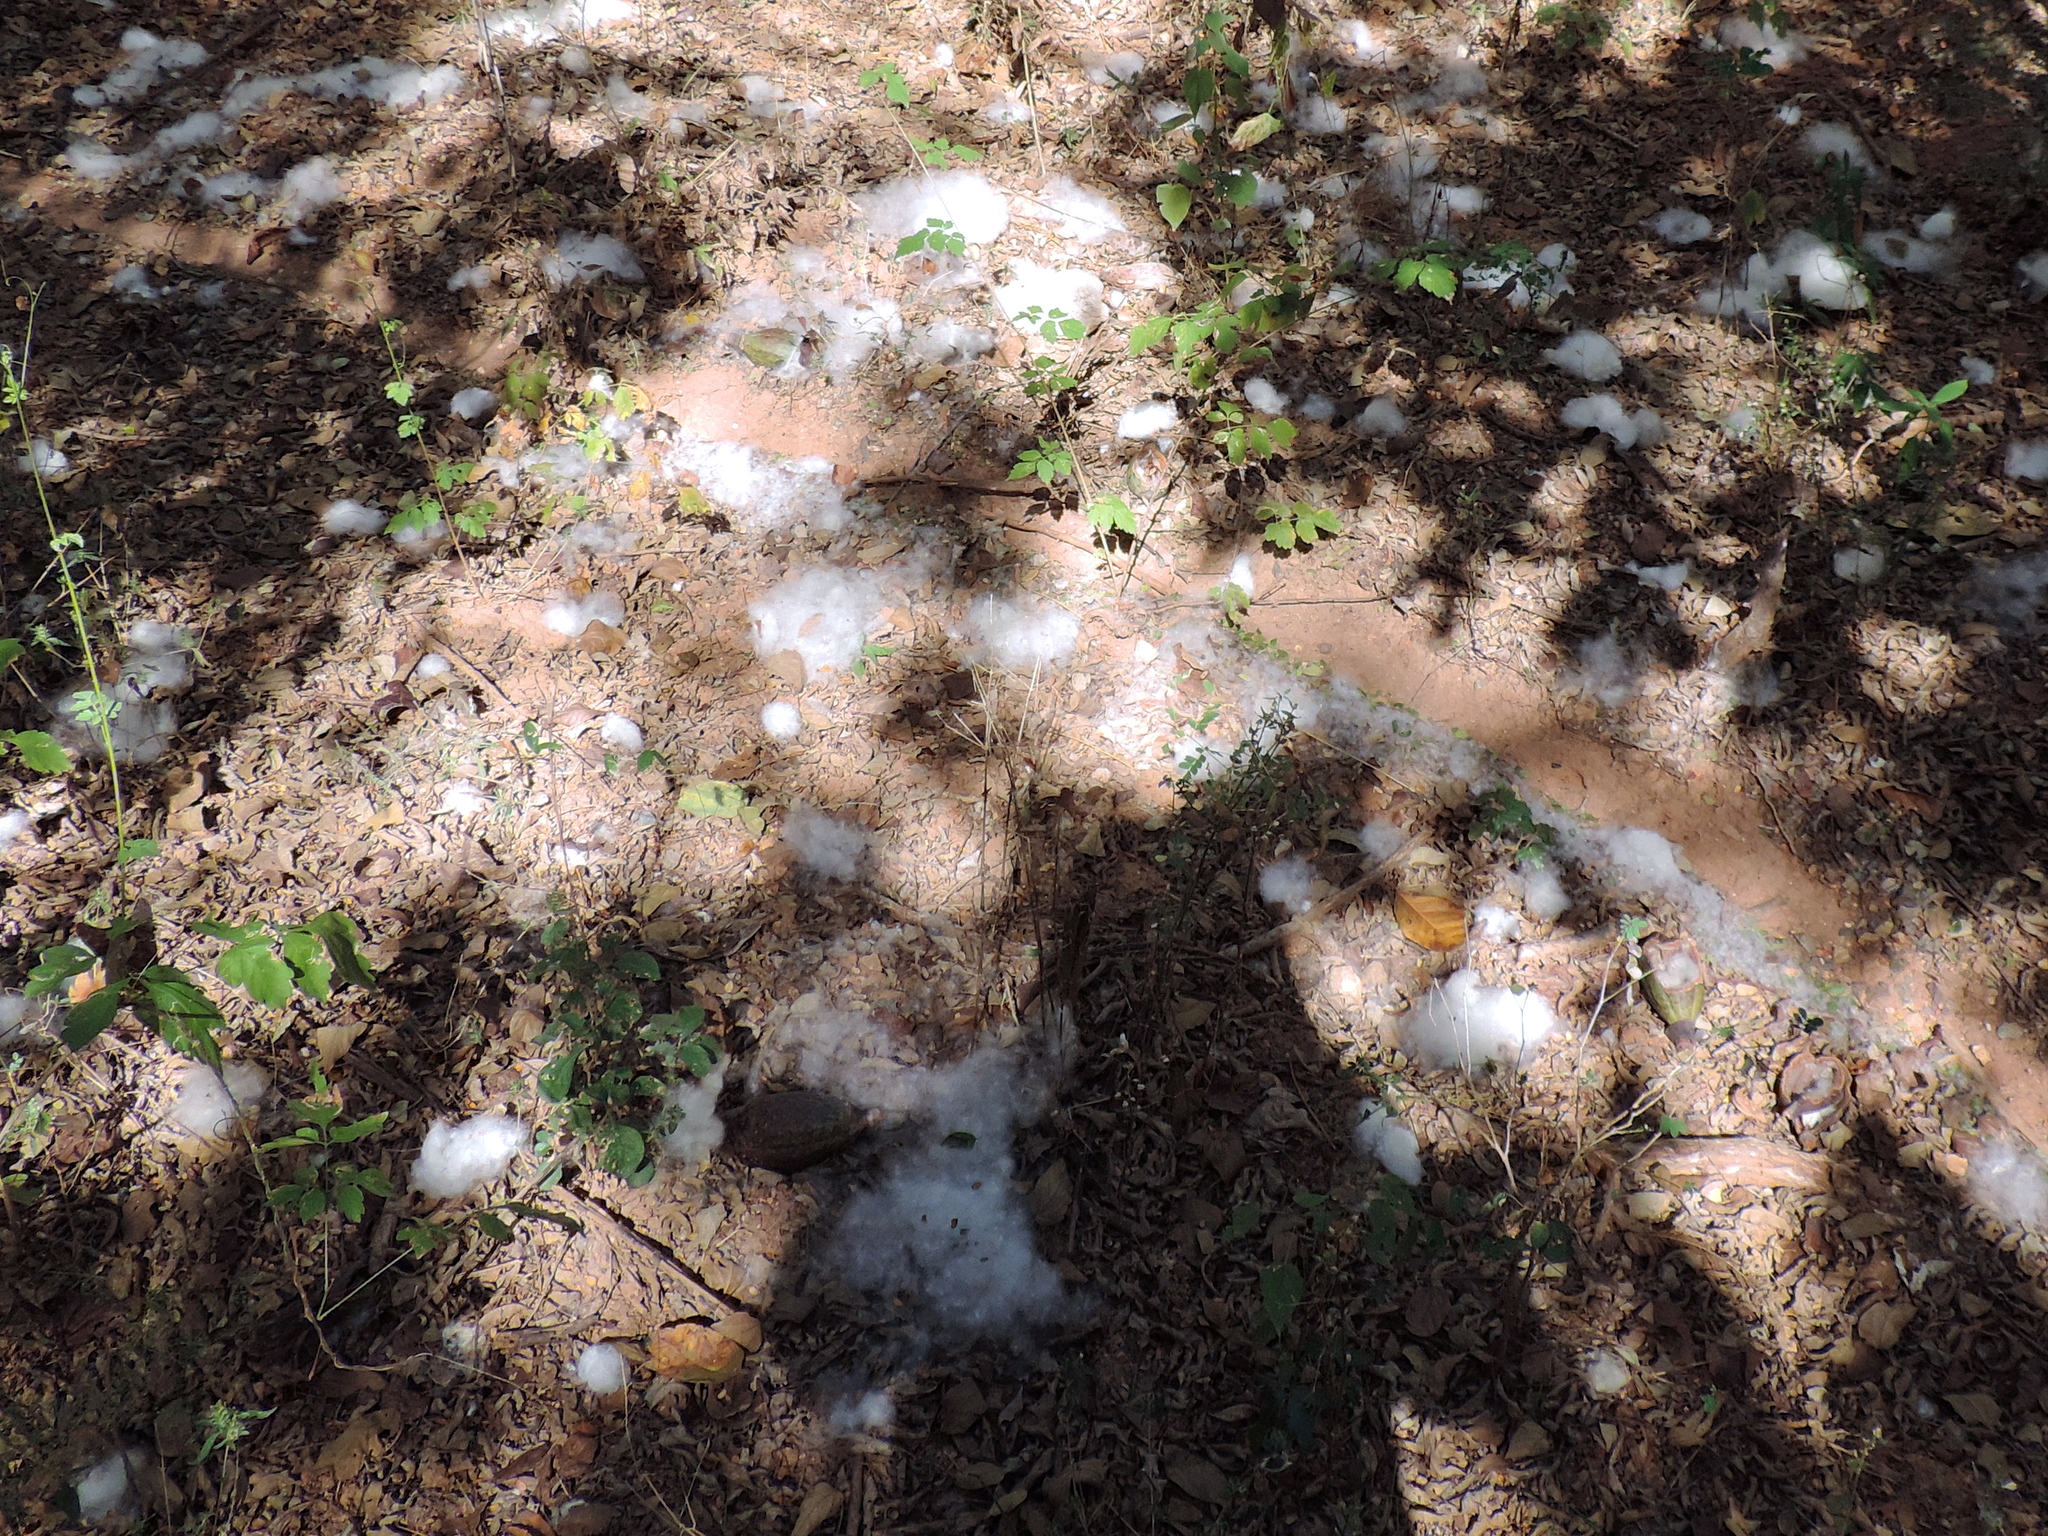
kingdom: Plantae
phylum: Tracheophyta
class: Magnoliopsida
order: Malvales
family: Malvaceae
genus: Ceiba
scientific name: Ceiba aesculifolia
